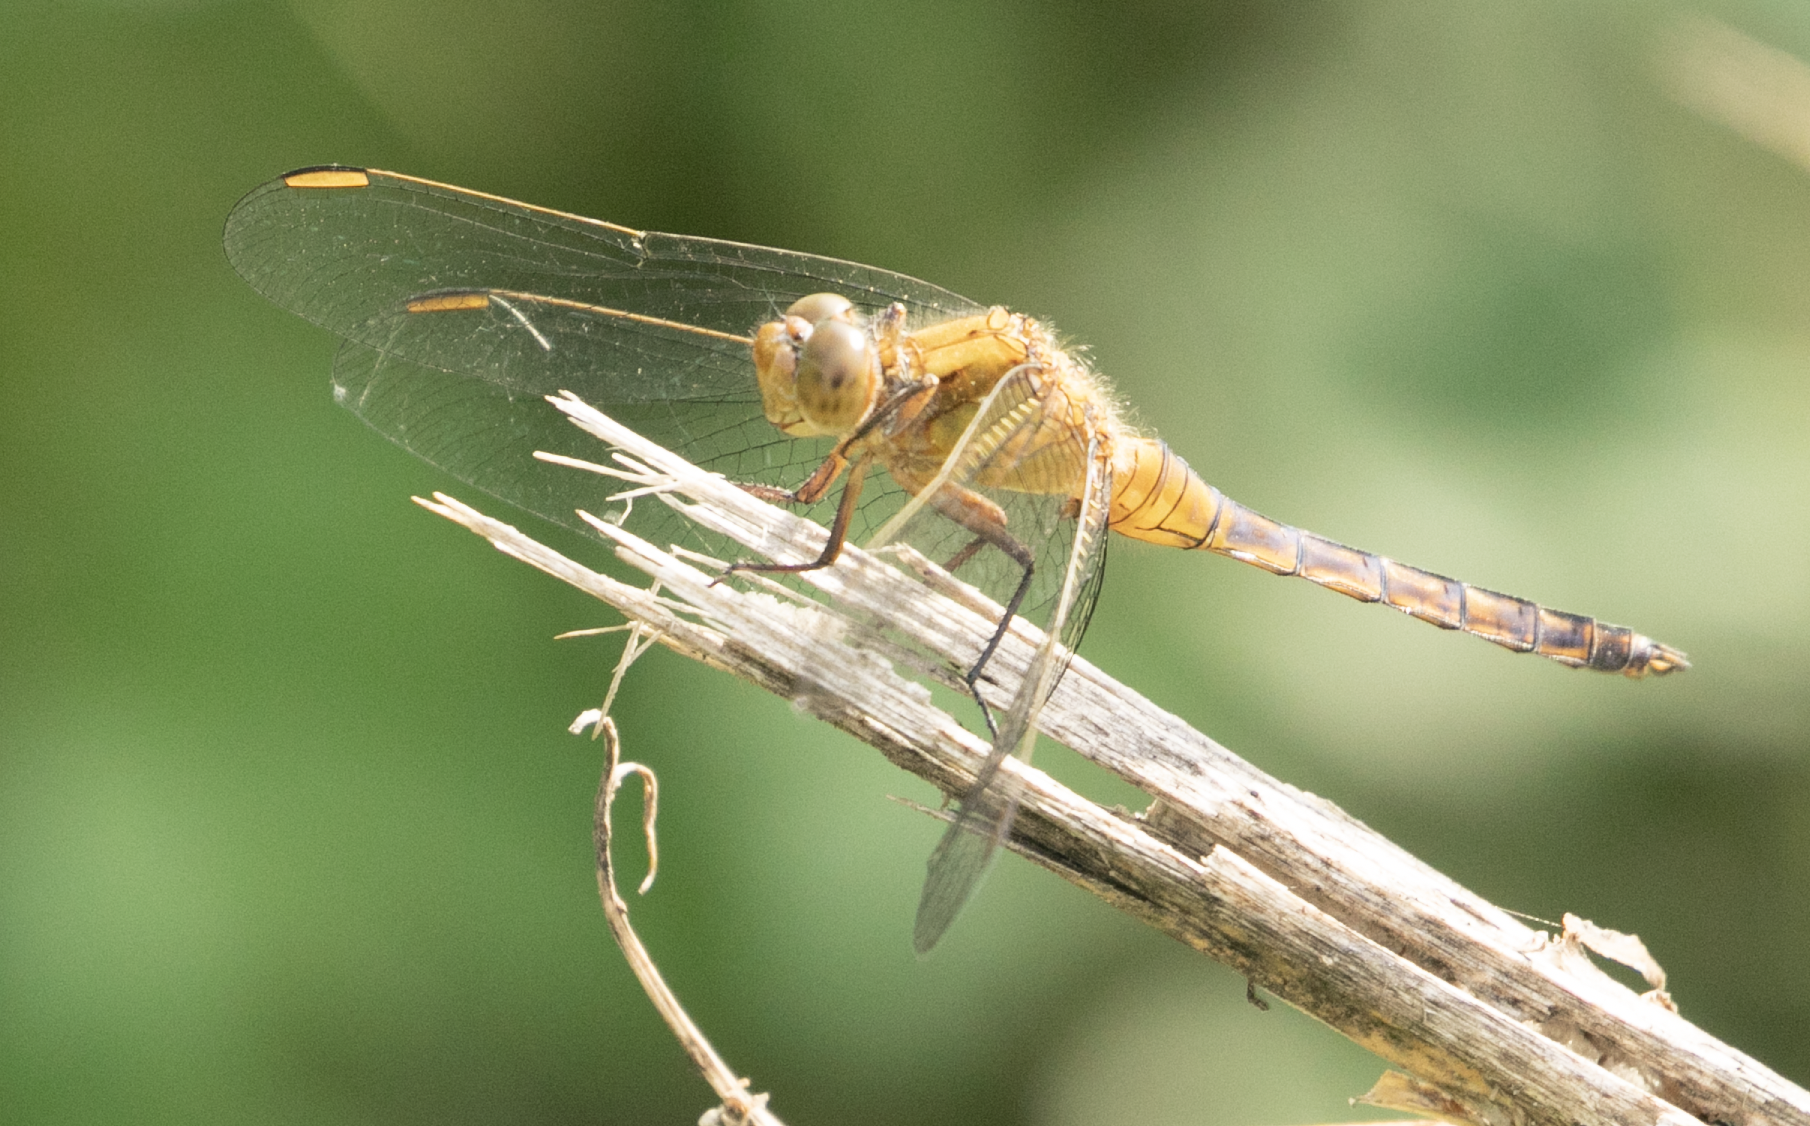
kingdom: Animalia
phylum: Arthropoda
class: Insecta
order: Odonata
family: Libellulidae
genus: Orthetrum
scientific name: Orthetrum coerulescens
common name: Keeled skimmer
